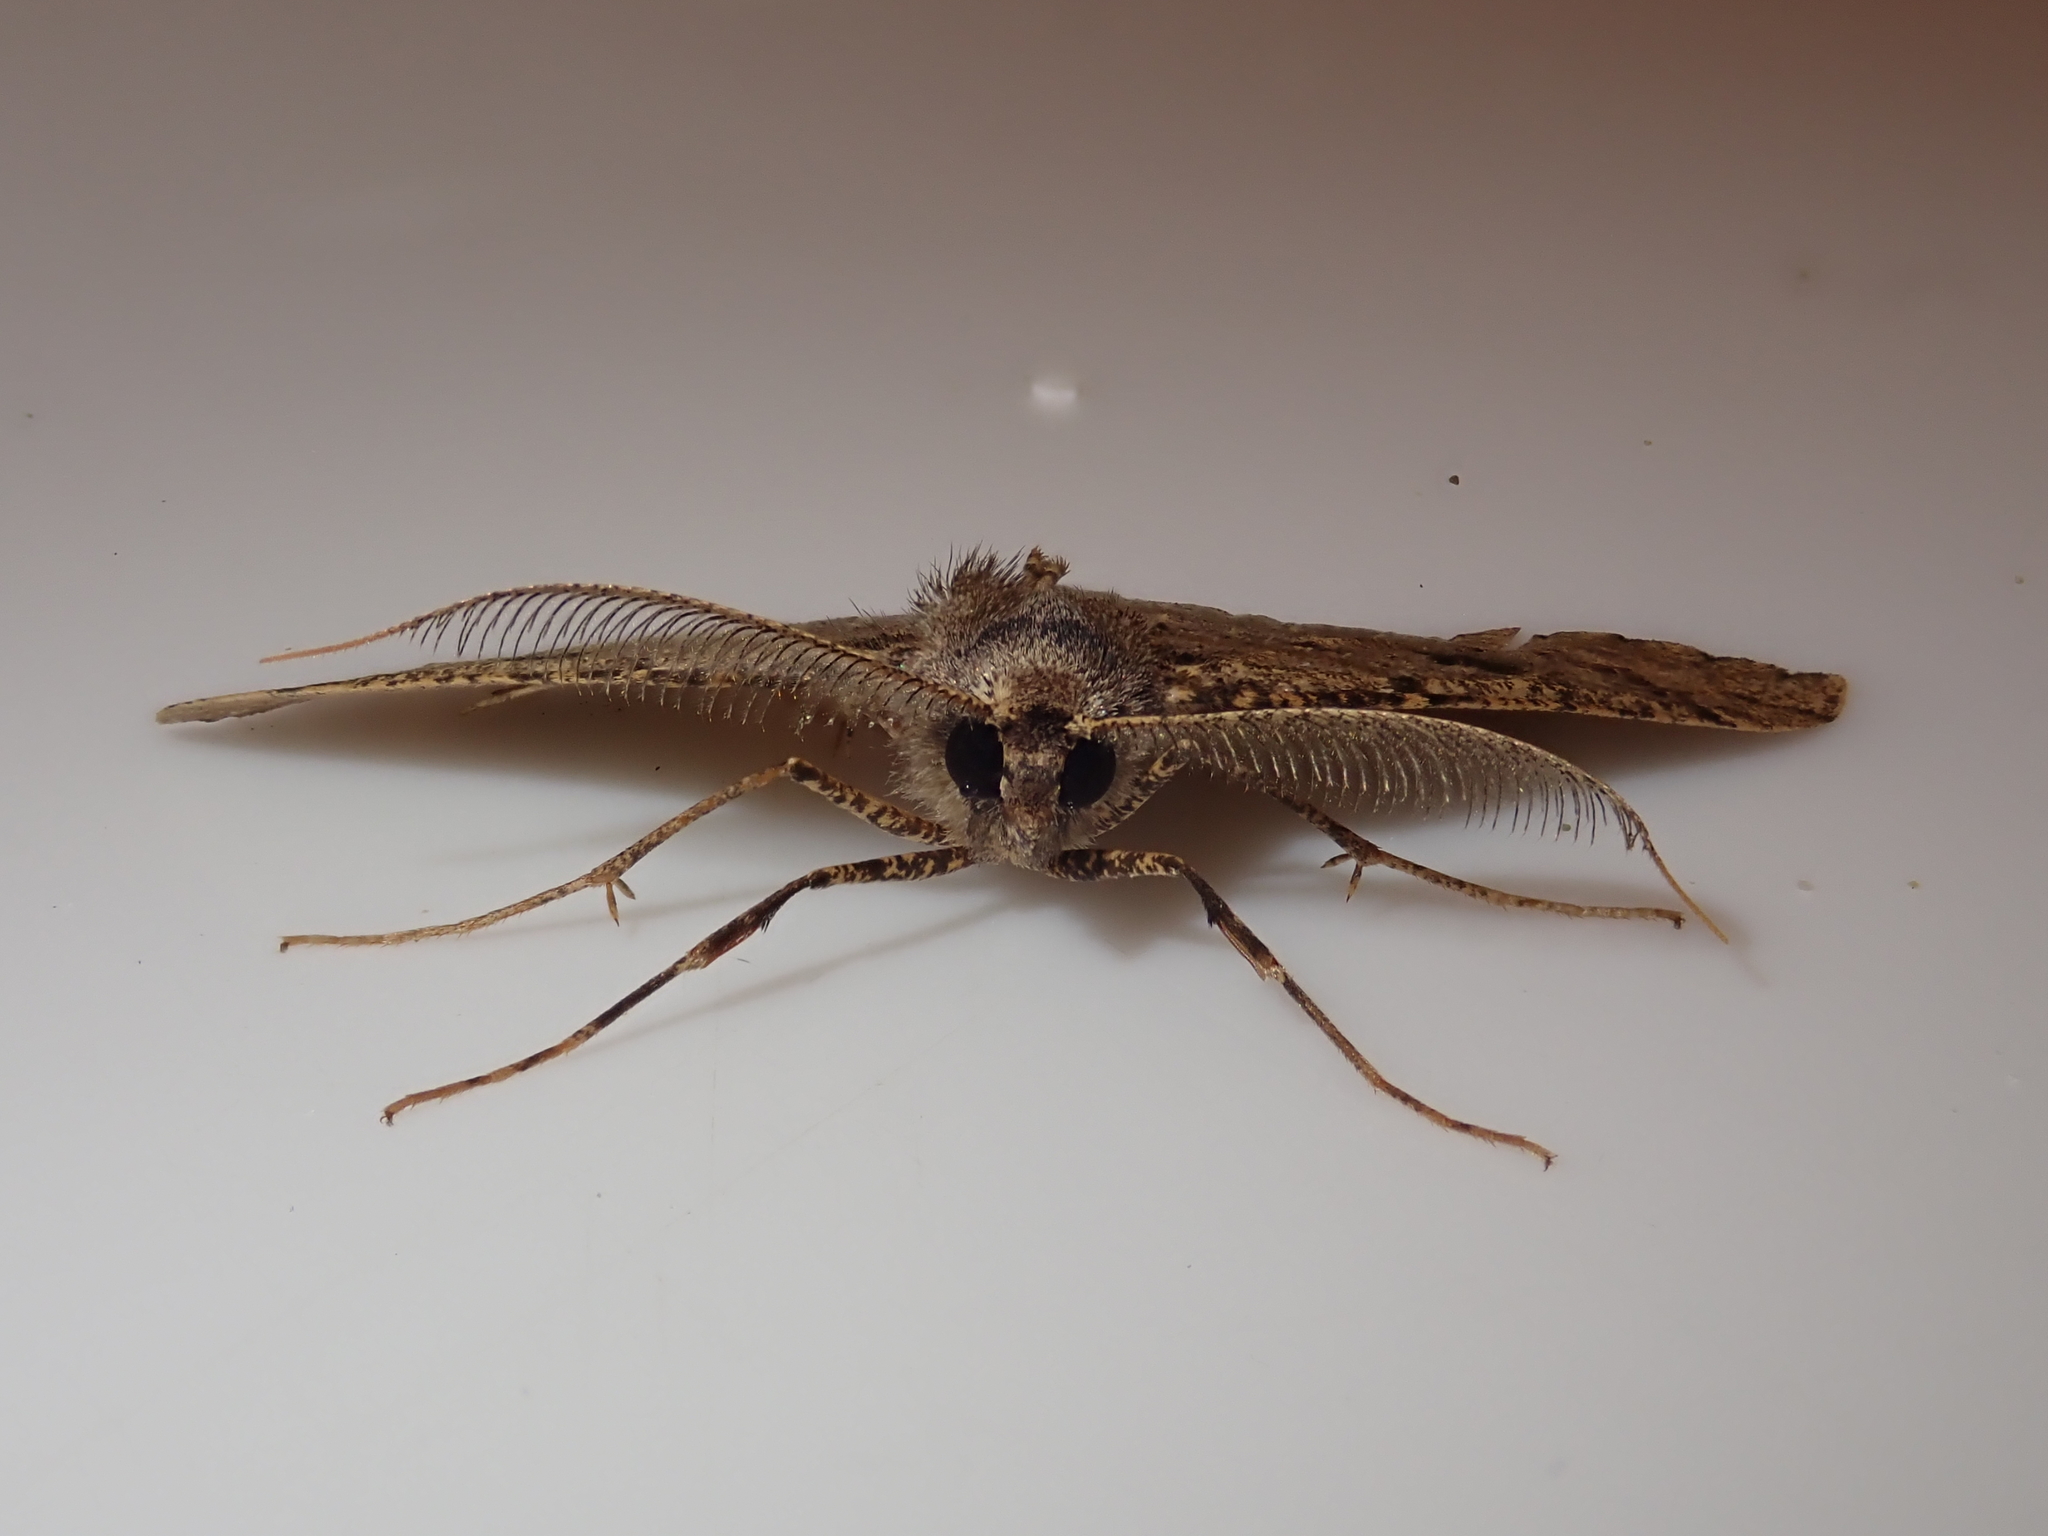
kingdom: Animalia
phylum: Arthropoda
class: Insecta
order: Lepidoptera
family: Geometridae
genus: Cleora
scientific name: Cleora scriptaria
